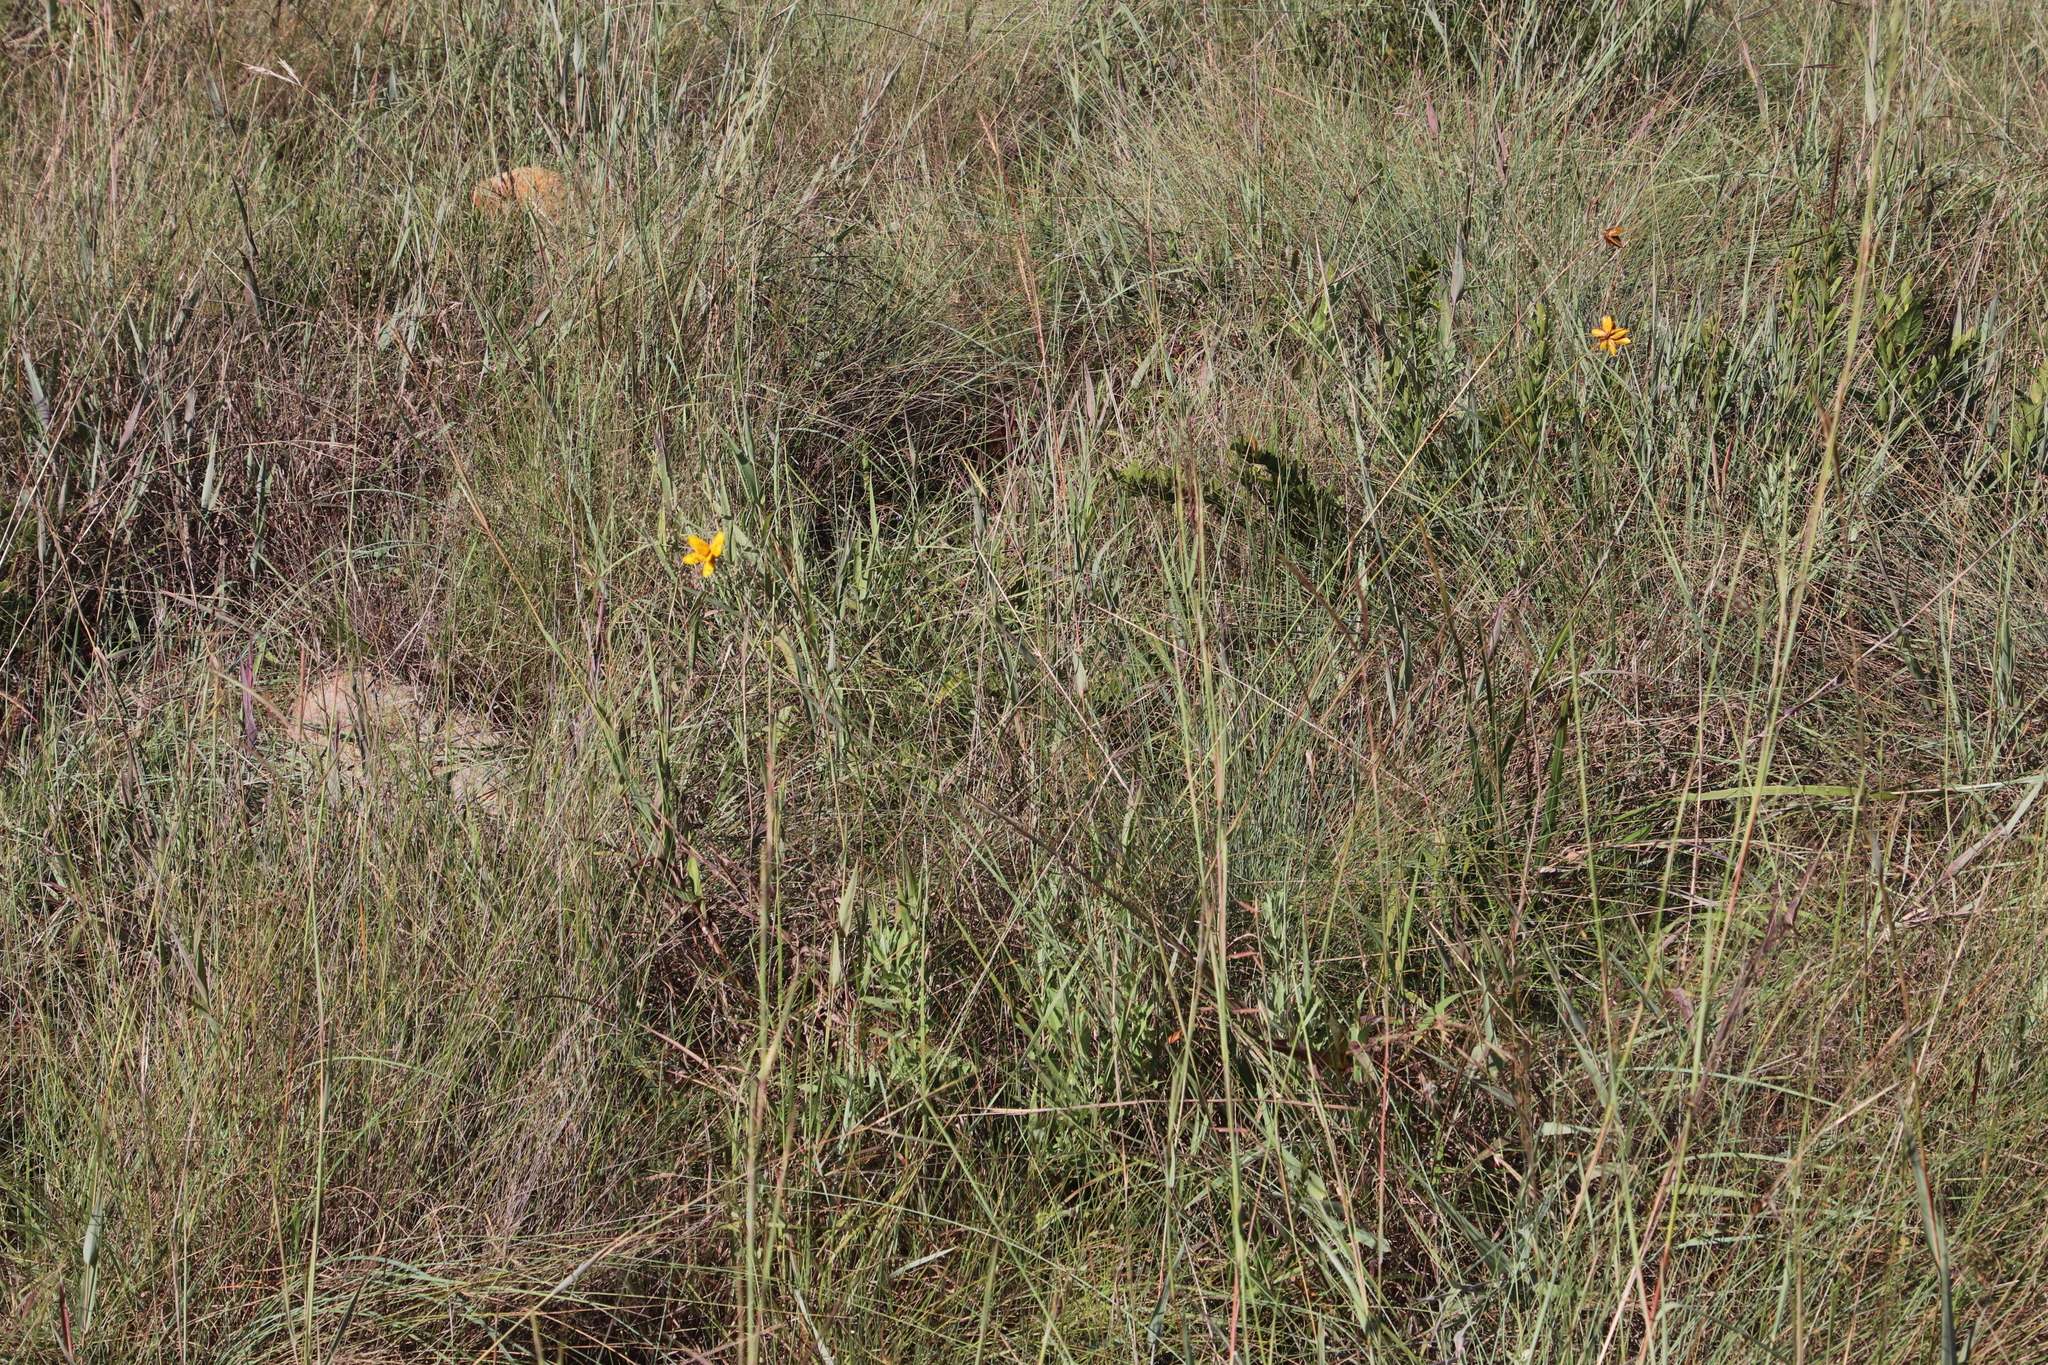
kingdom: Plantae
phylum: Tracheophyta
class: Liliopsida
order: Poales
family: Cyperaceae
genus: Cyperus
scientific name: Cyperus sphaerocephalus
